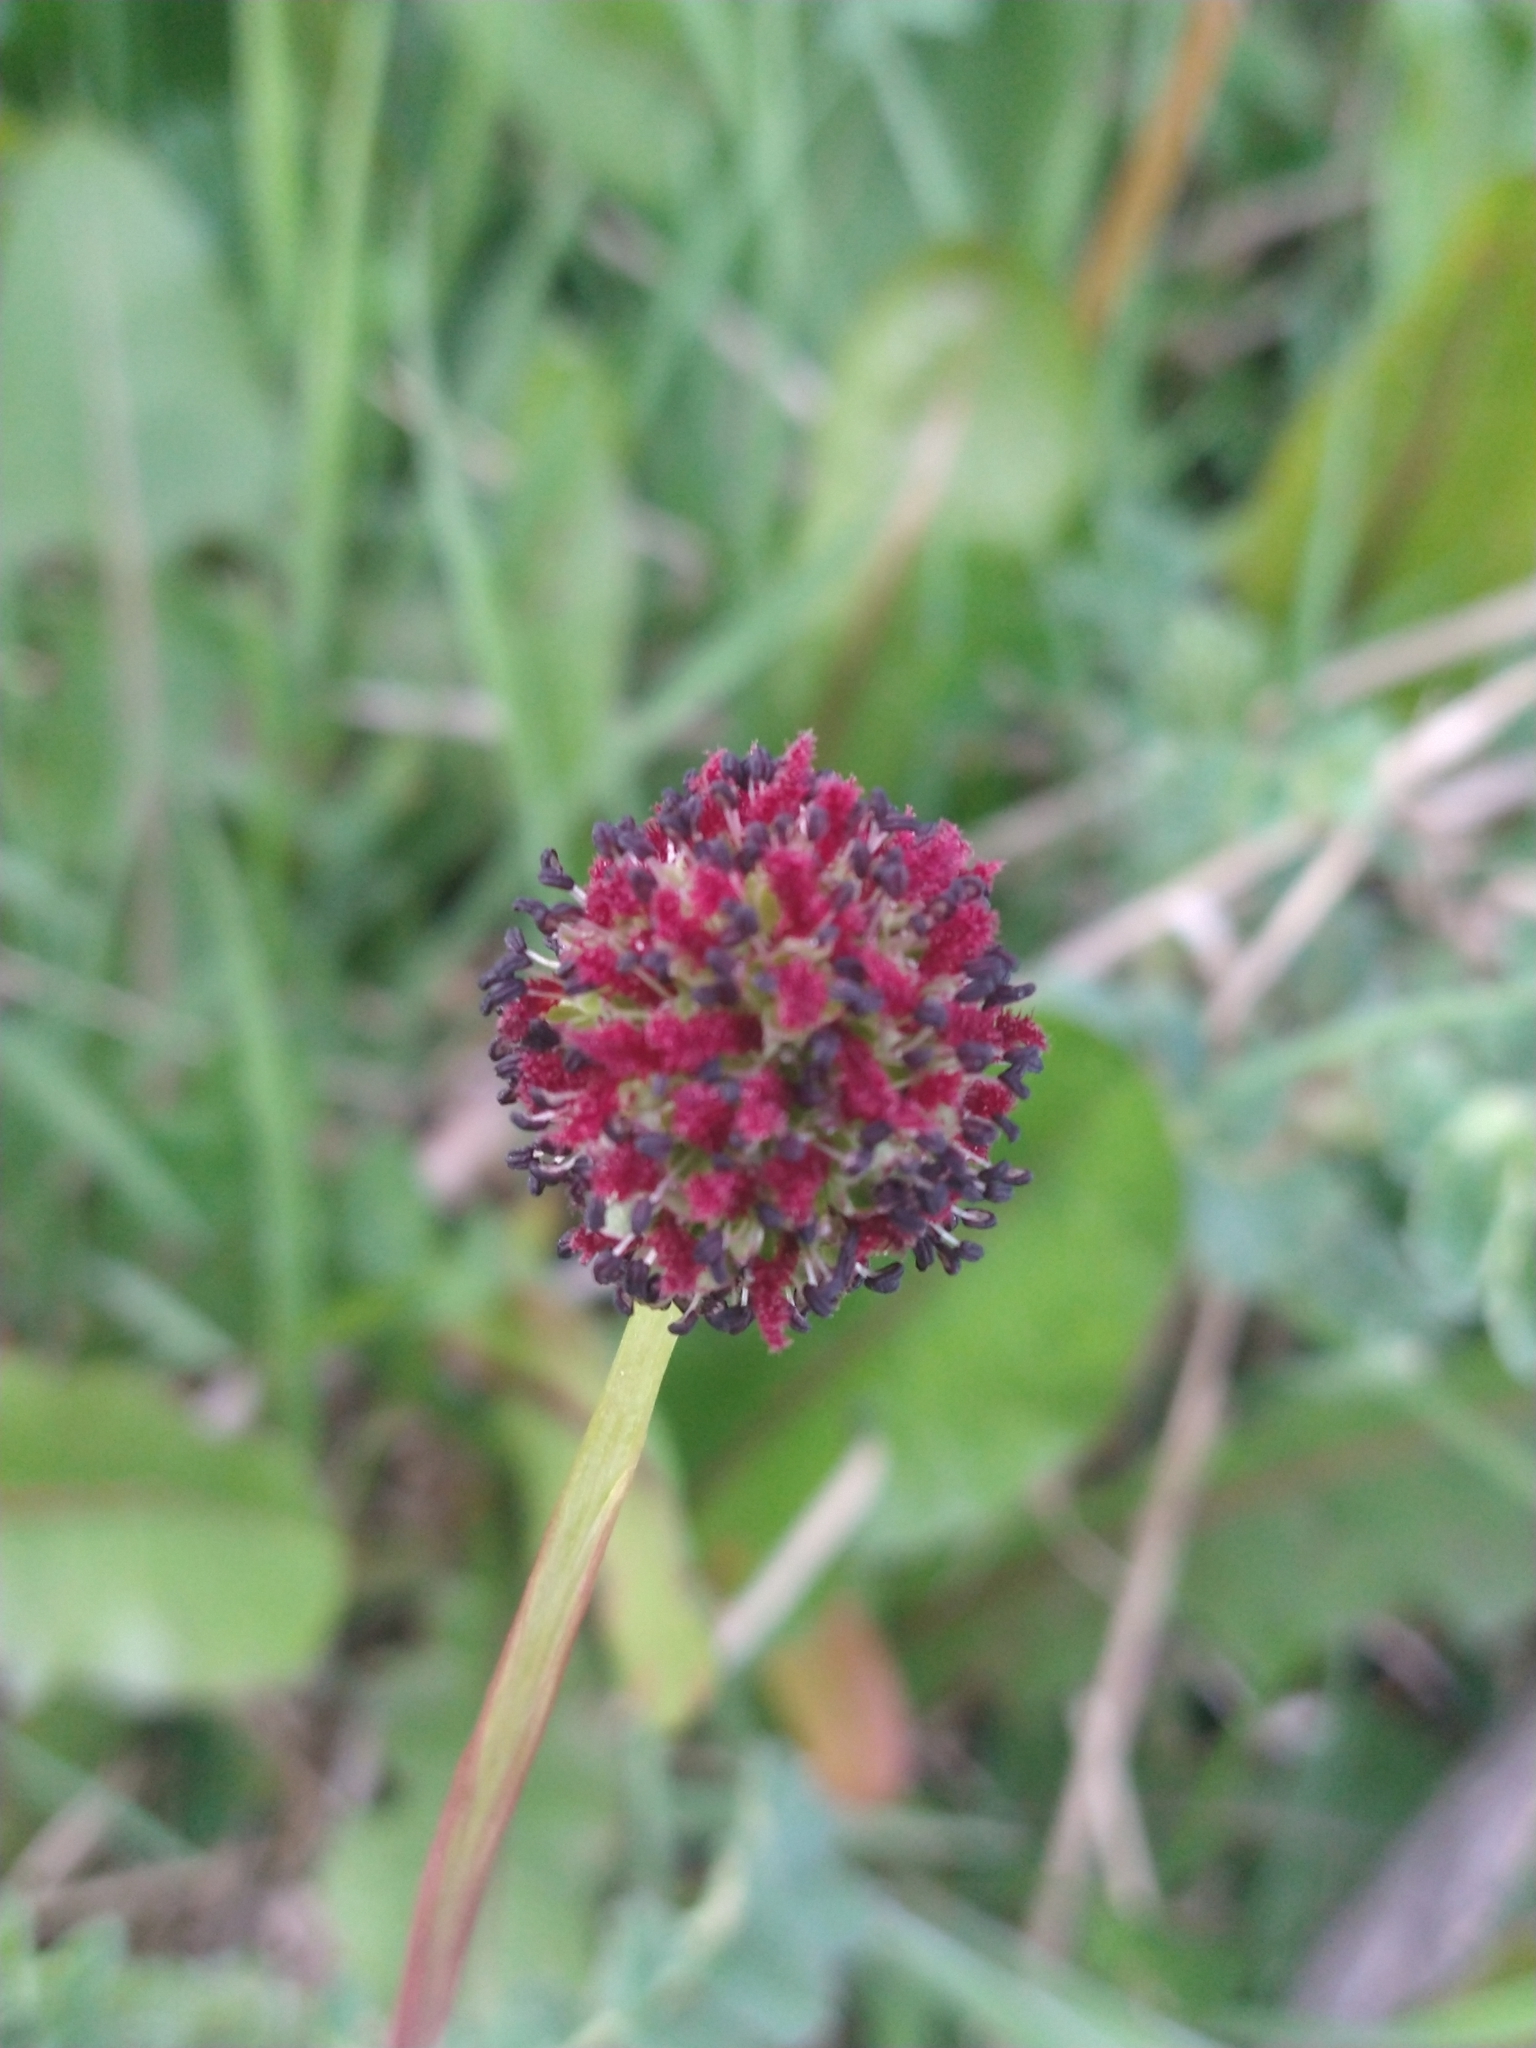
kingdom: Plantae
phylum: Tracheophyta
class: Magnoliopsida
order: Rosales
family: Rosaceae
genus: Acaena
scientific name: Acaena magellanica
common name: New zealand burr
